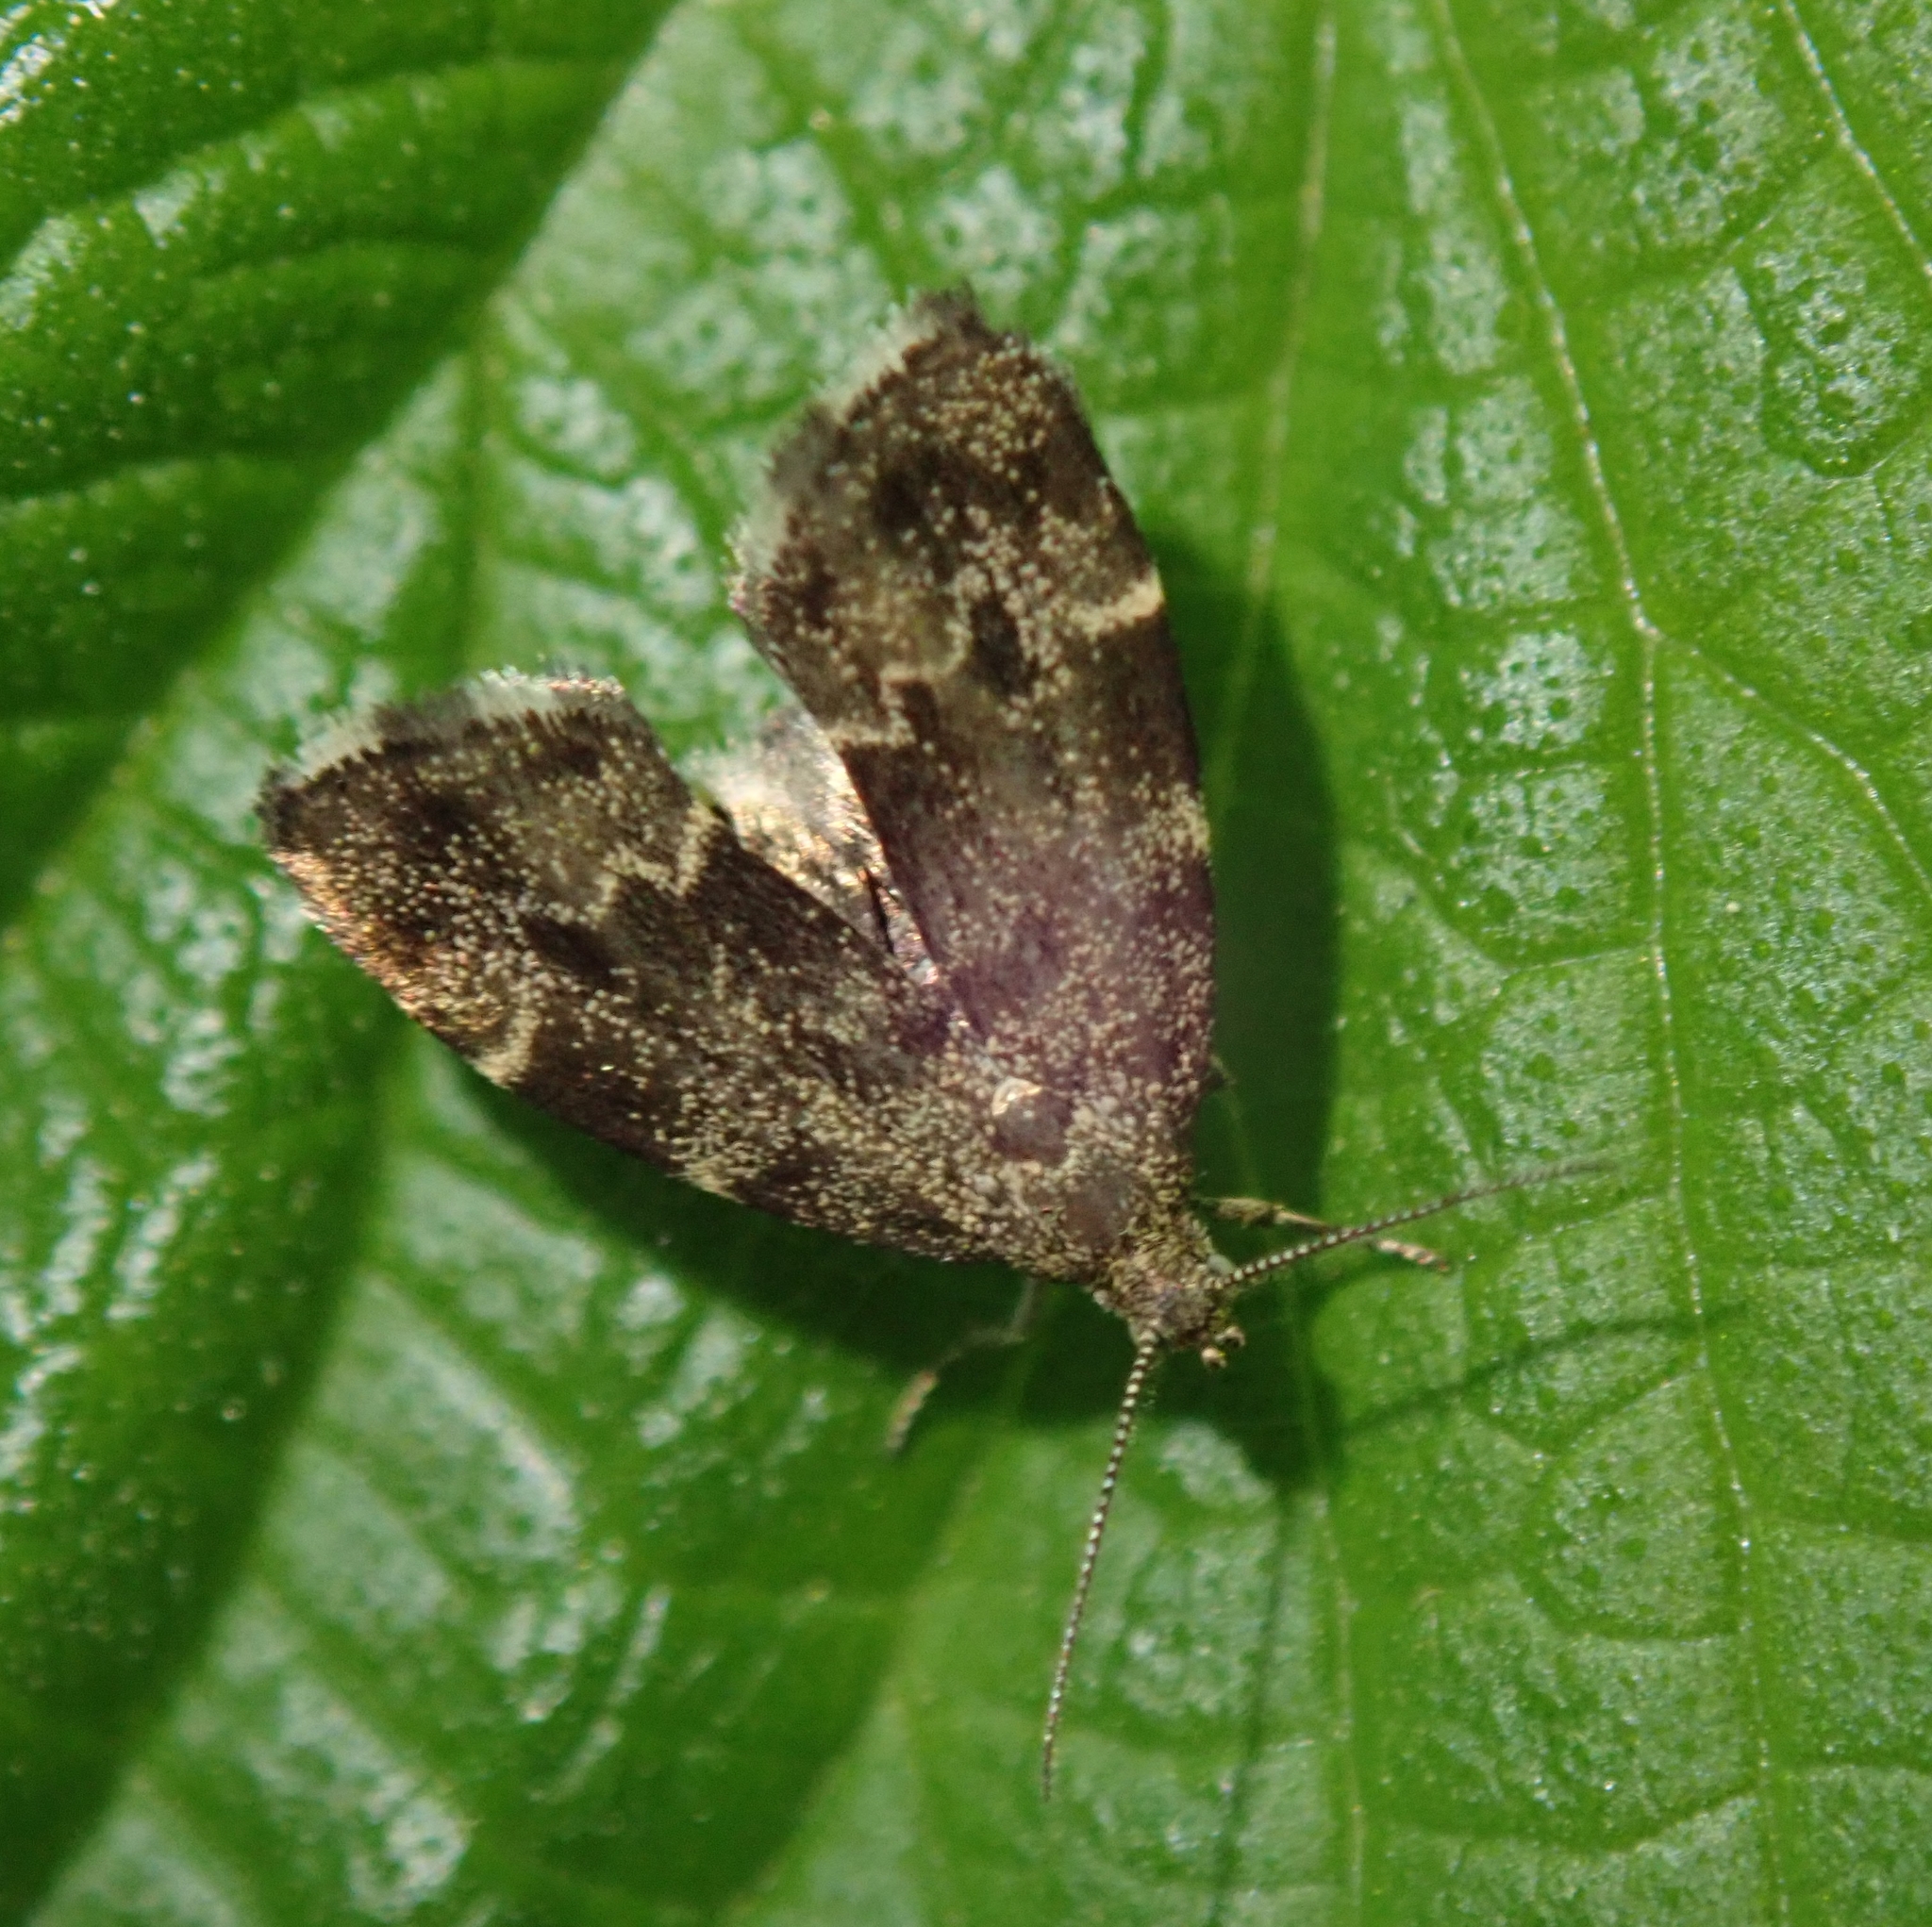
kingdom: Animalia
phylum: Arthropoda
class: Insecta
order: Lepidoptera
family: Choreutidae
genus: Anthophila
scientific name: Anthophila fabriciana
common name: Nettle-tap
